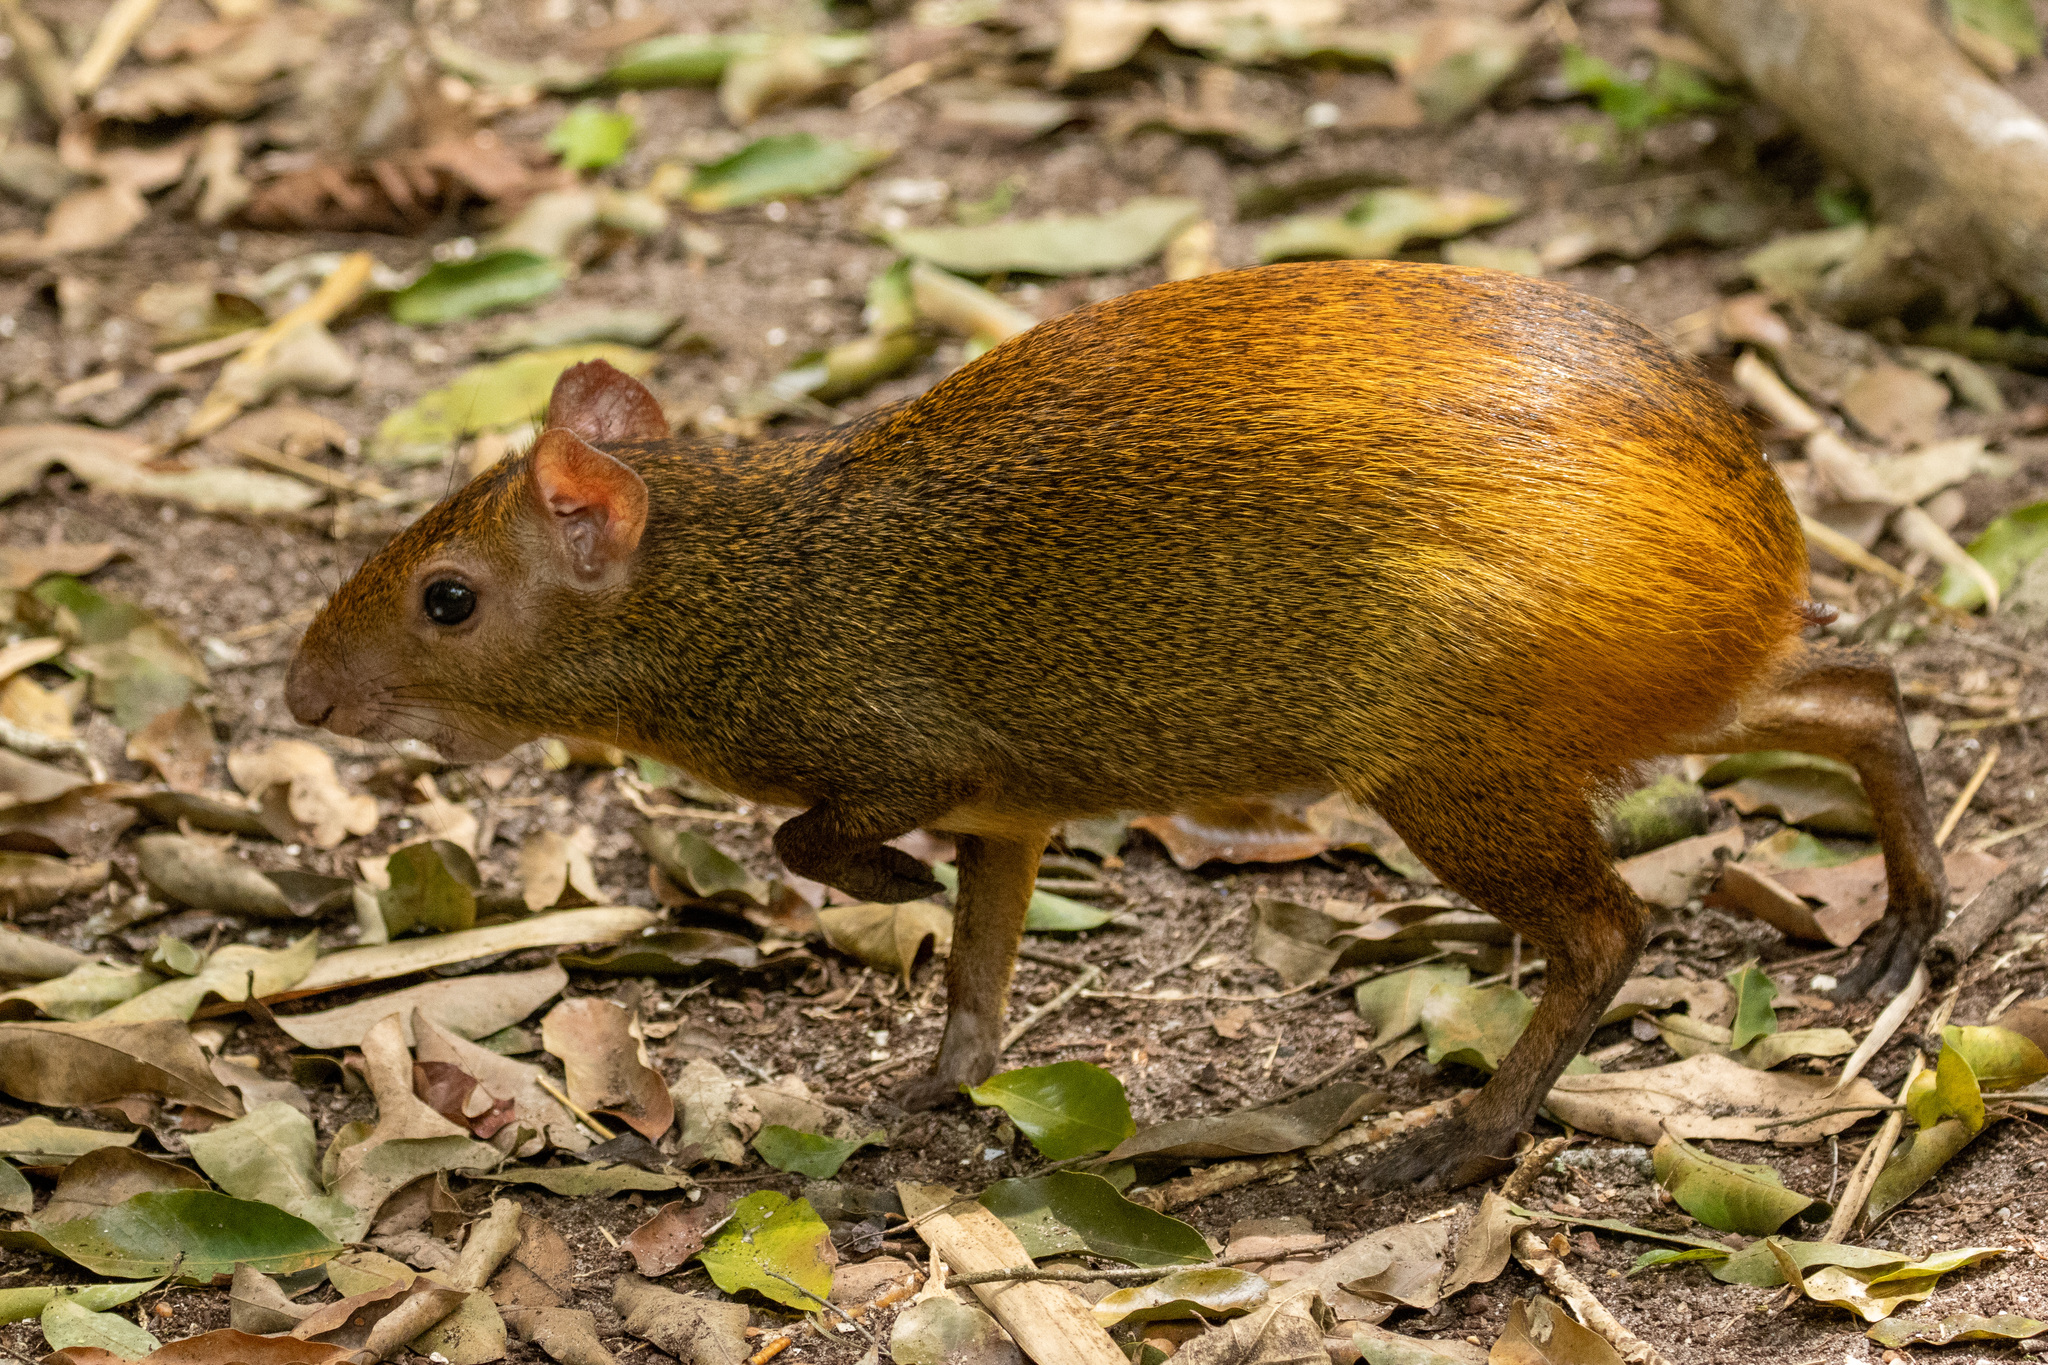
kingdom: Animalia
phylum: Chordata
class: Mammalia
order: Rodentia
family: Dasyproctidae
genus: Dasyprocta
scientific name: Dasyprocta iacki
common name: Iack’s red-rumped agouti
